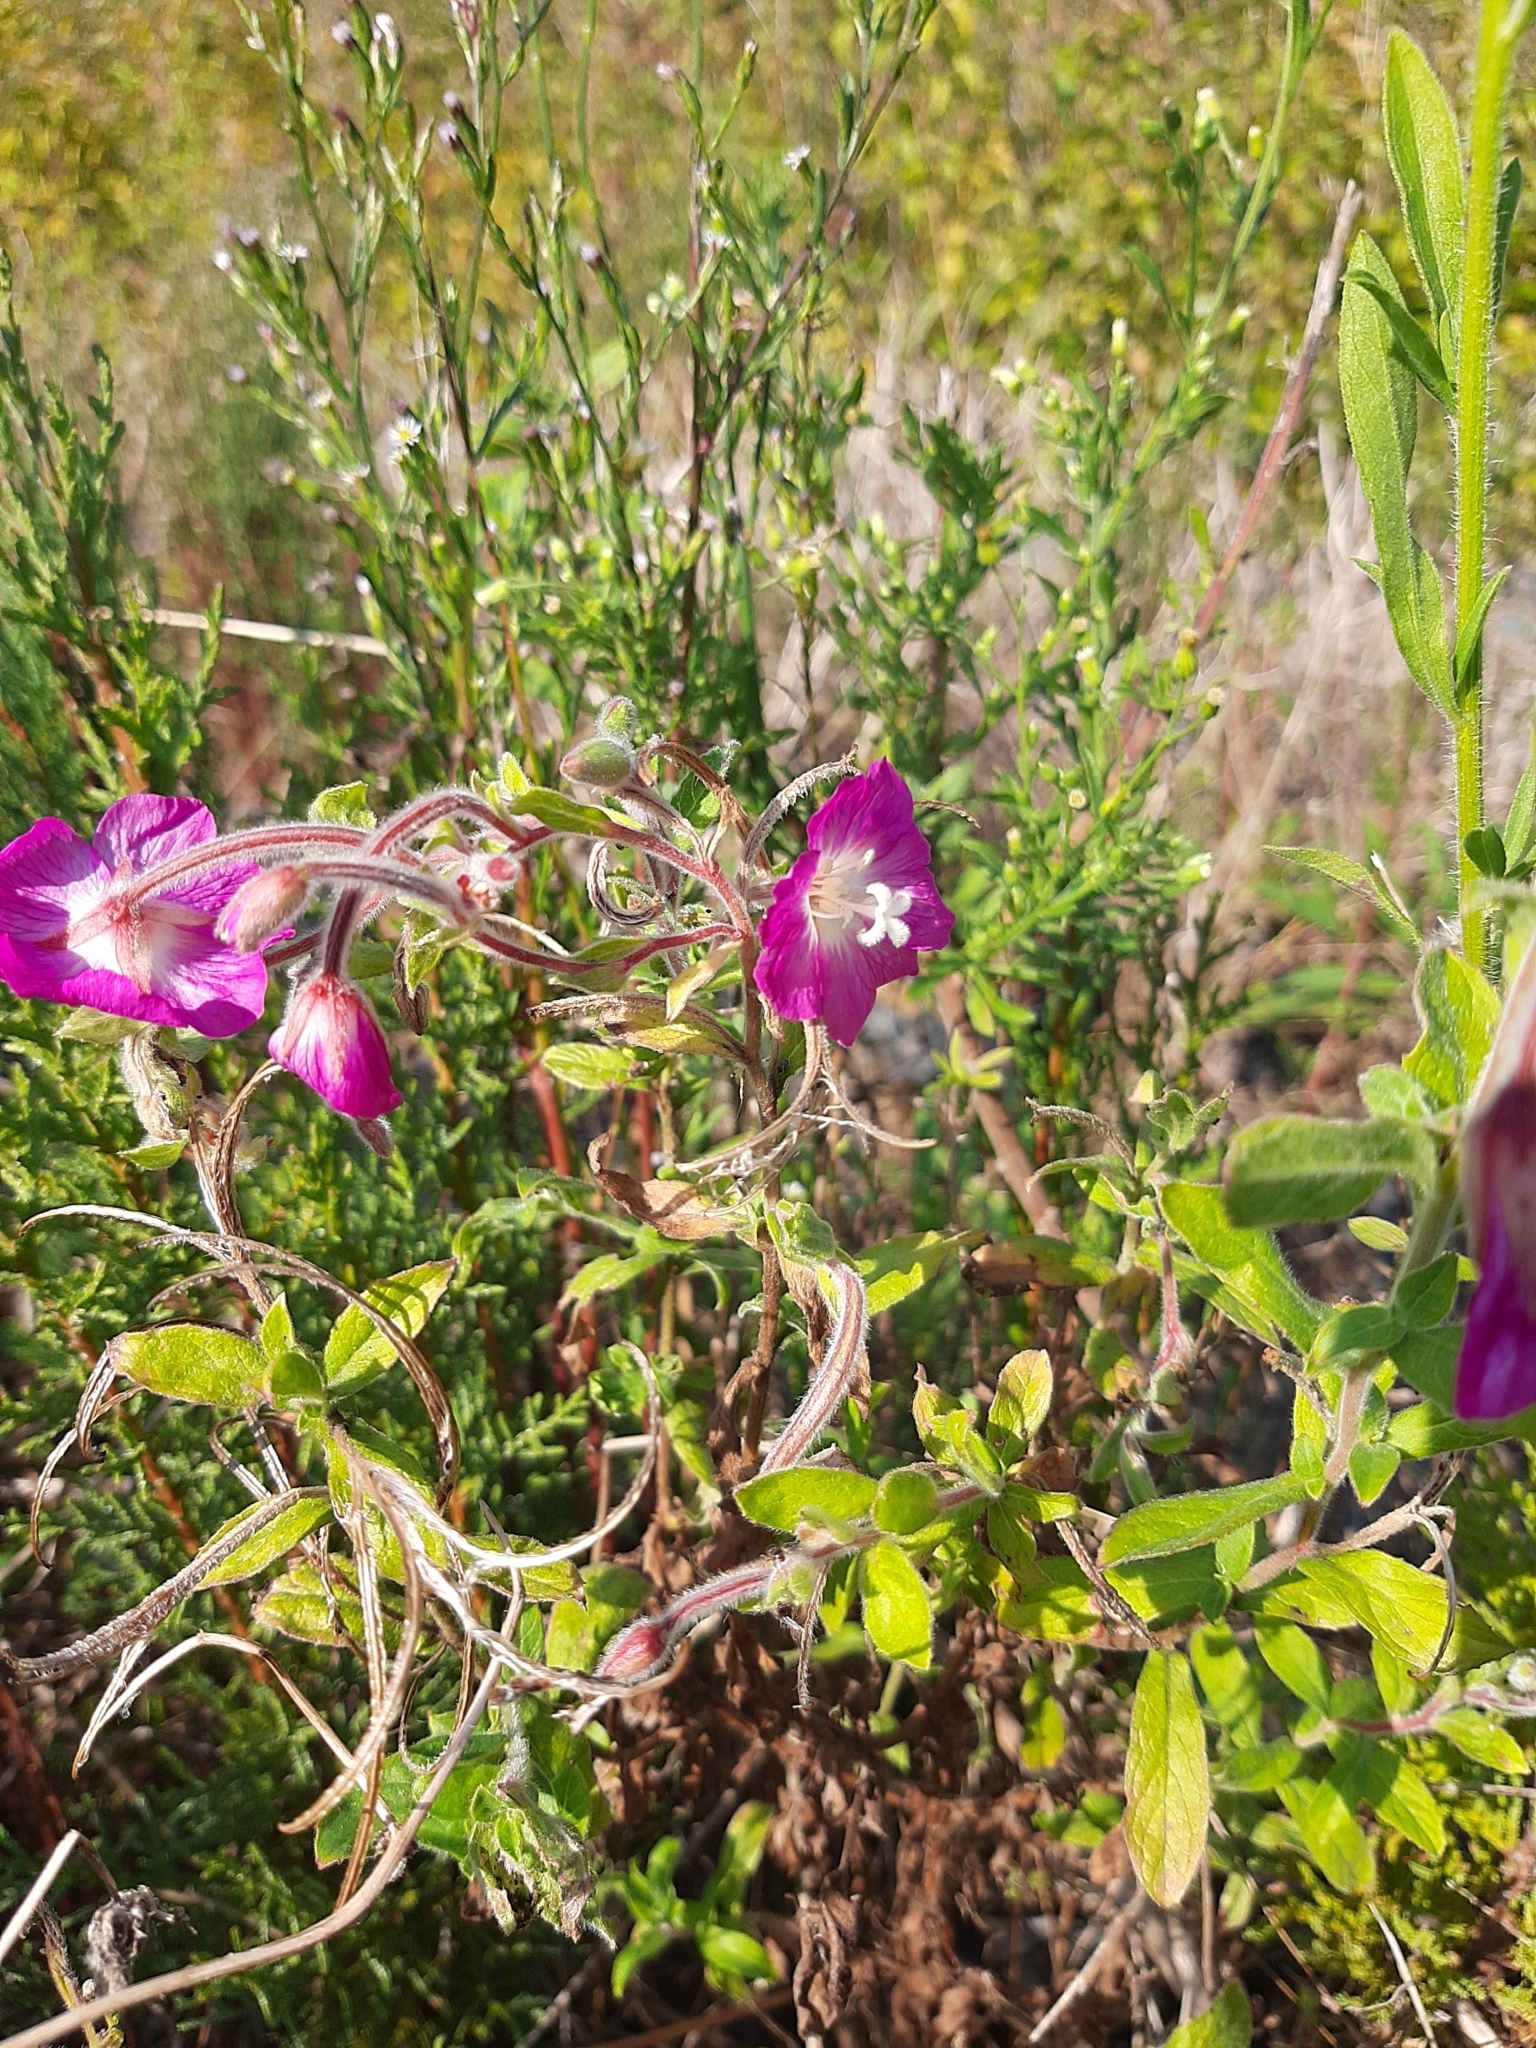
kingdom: Plantae
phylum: Tracheophyta
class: Magnoliopsida
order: Myrtales
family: Onagraceae
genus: Epilobium
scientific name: Epilobium hirsutum
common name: Great willowherb
